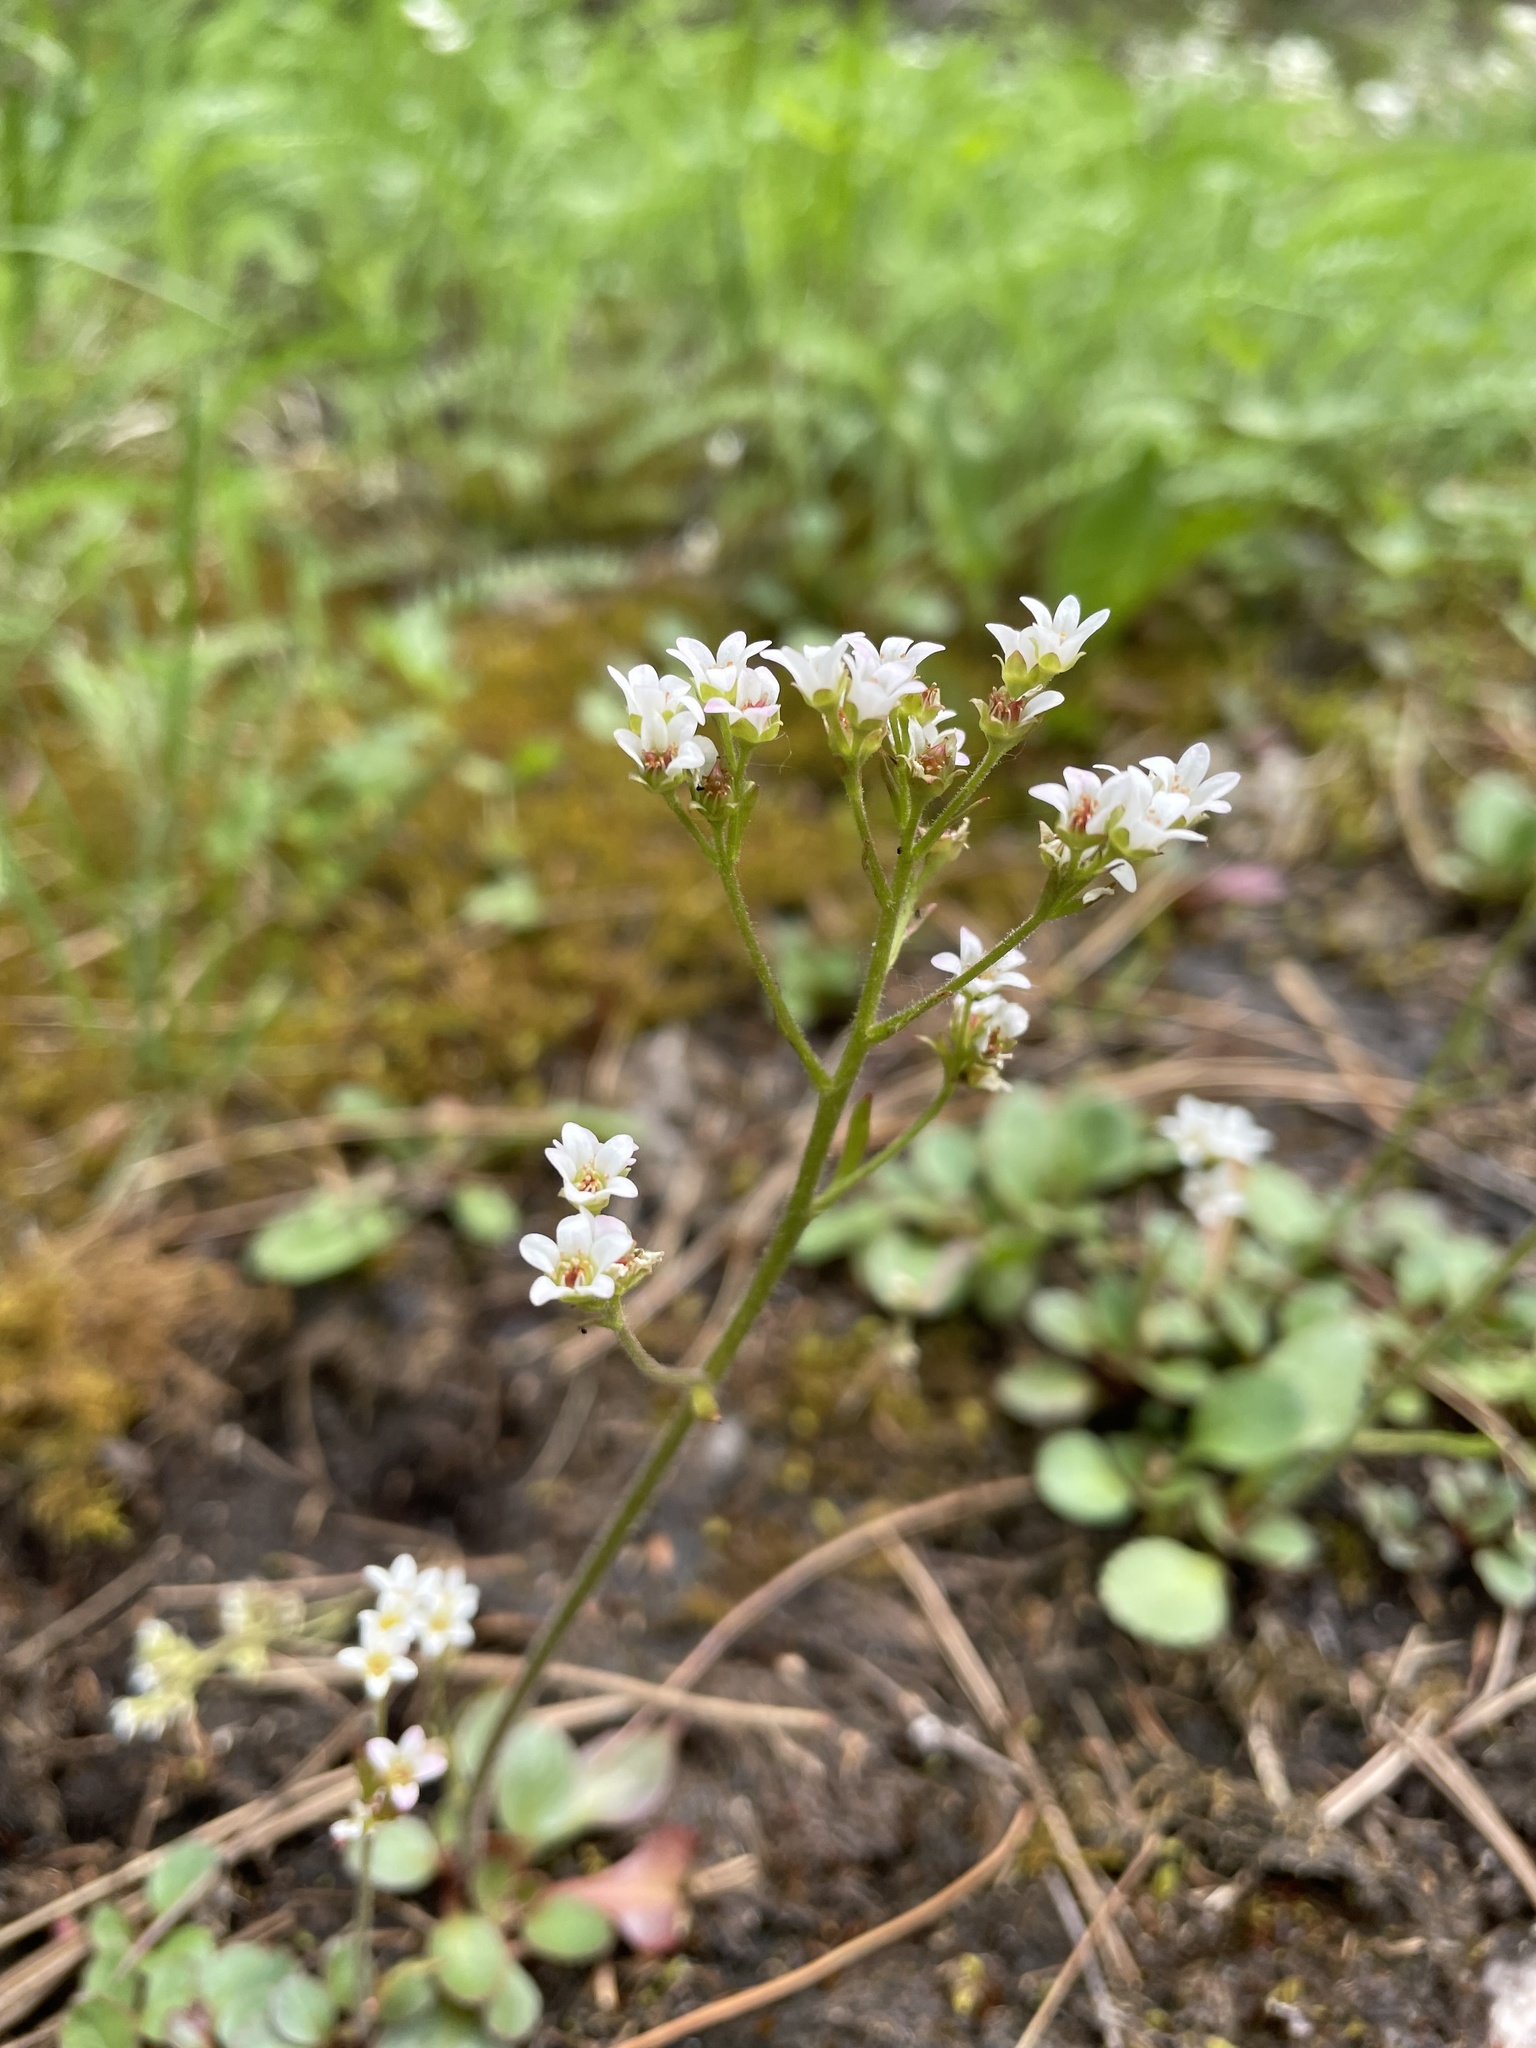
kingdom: Plantae
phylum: Tracheophyta
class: Magnoliopsida
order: Saxifragales
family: Saxifragaceae
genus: Micranthes
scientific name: Micranthes virginiensis
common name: Early saxifrage
